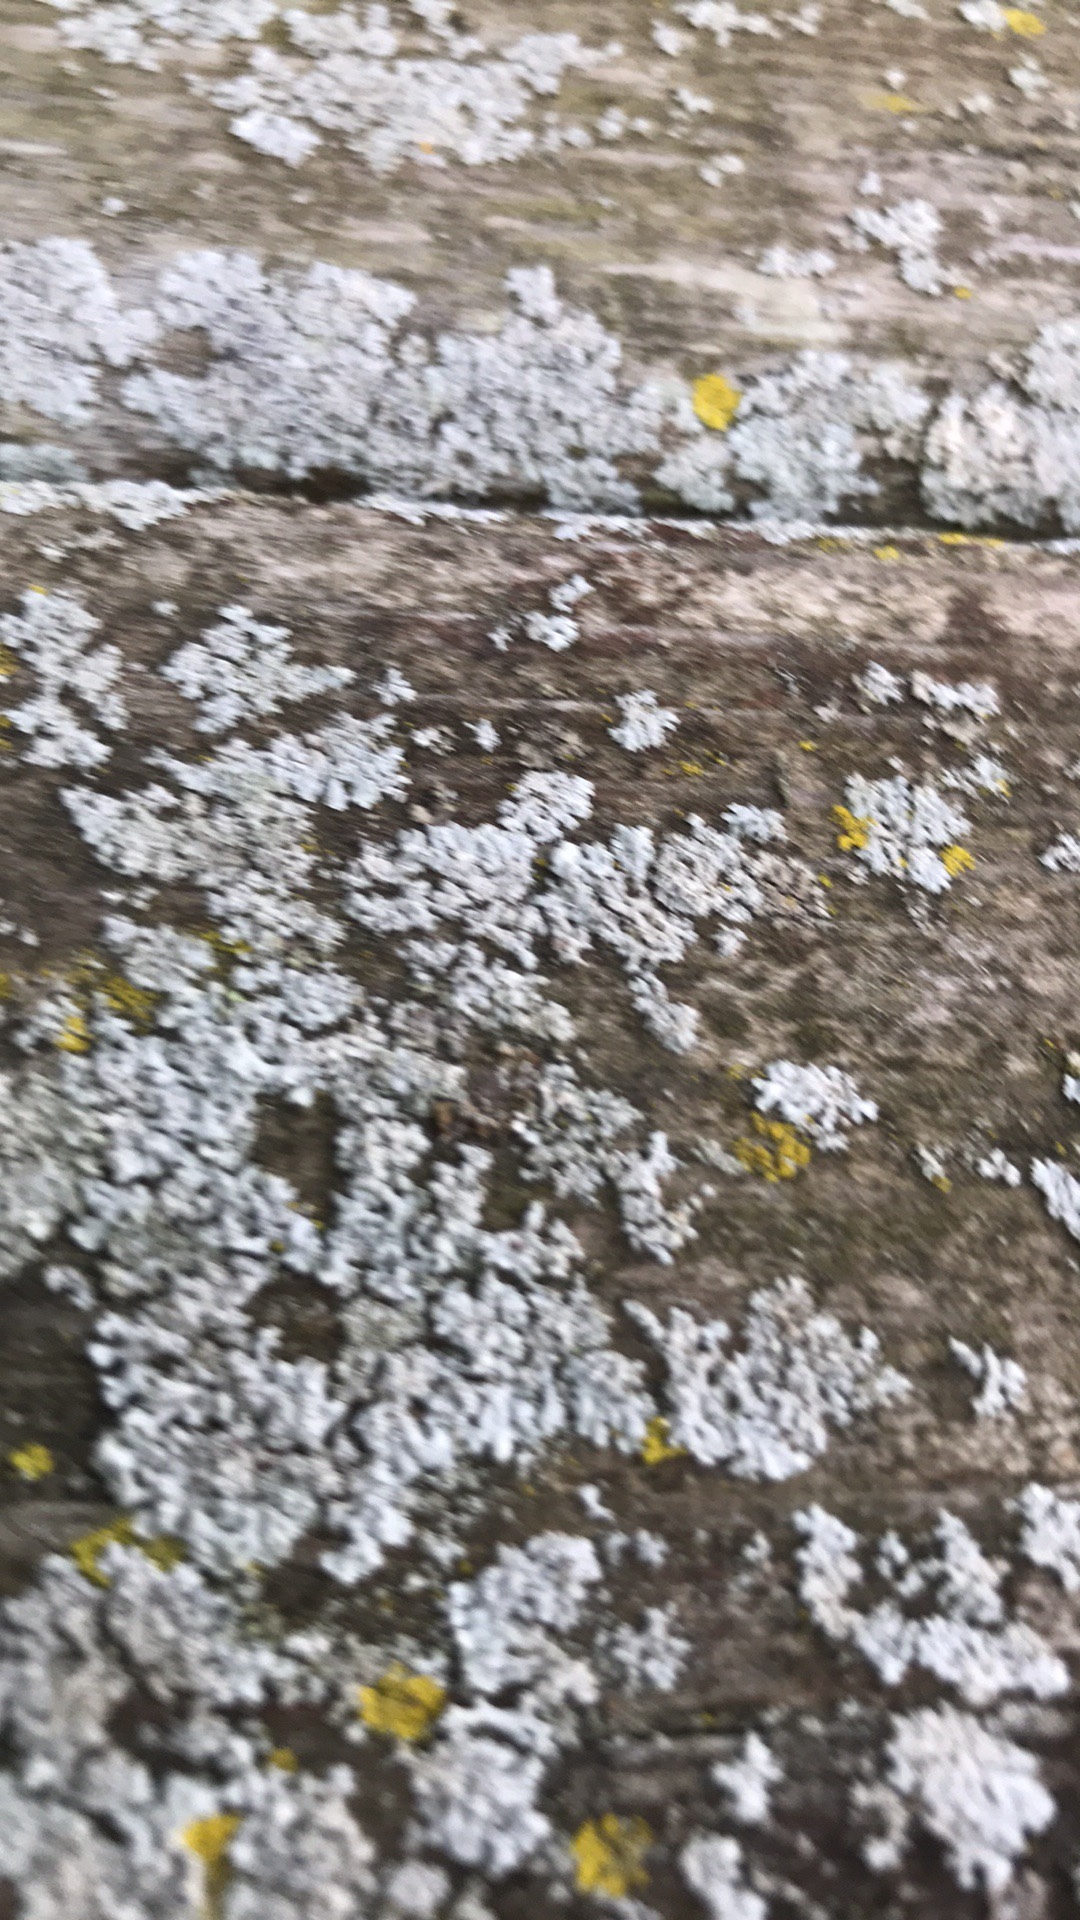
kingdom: Fungi
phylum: Ascomycota
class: Lecanoromycetes
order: Caliciales
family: Physciaceae
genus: Physcia
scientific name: Physcia millegrana
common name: Rosette lichen
